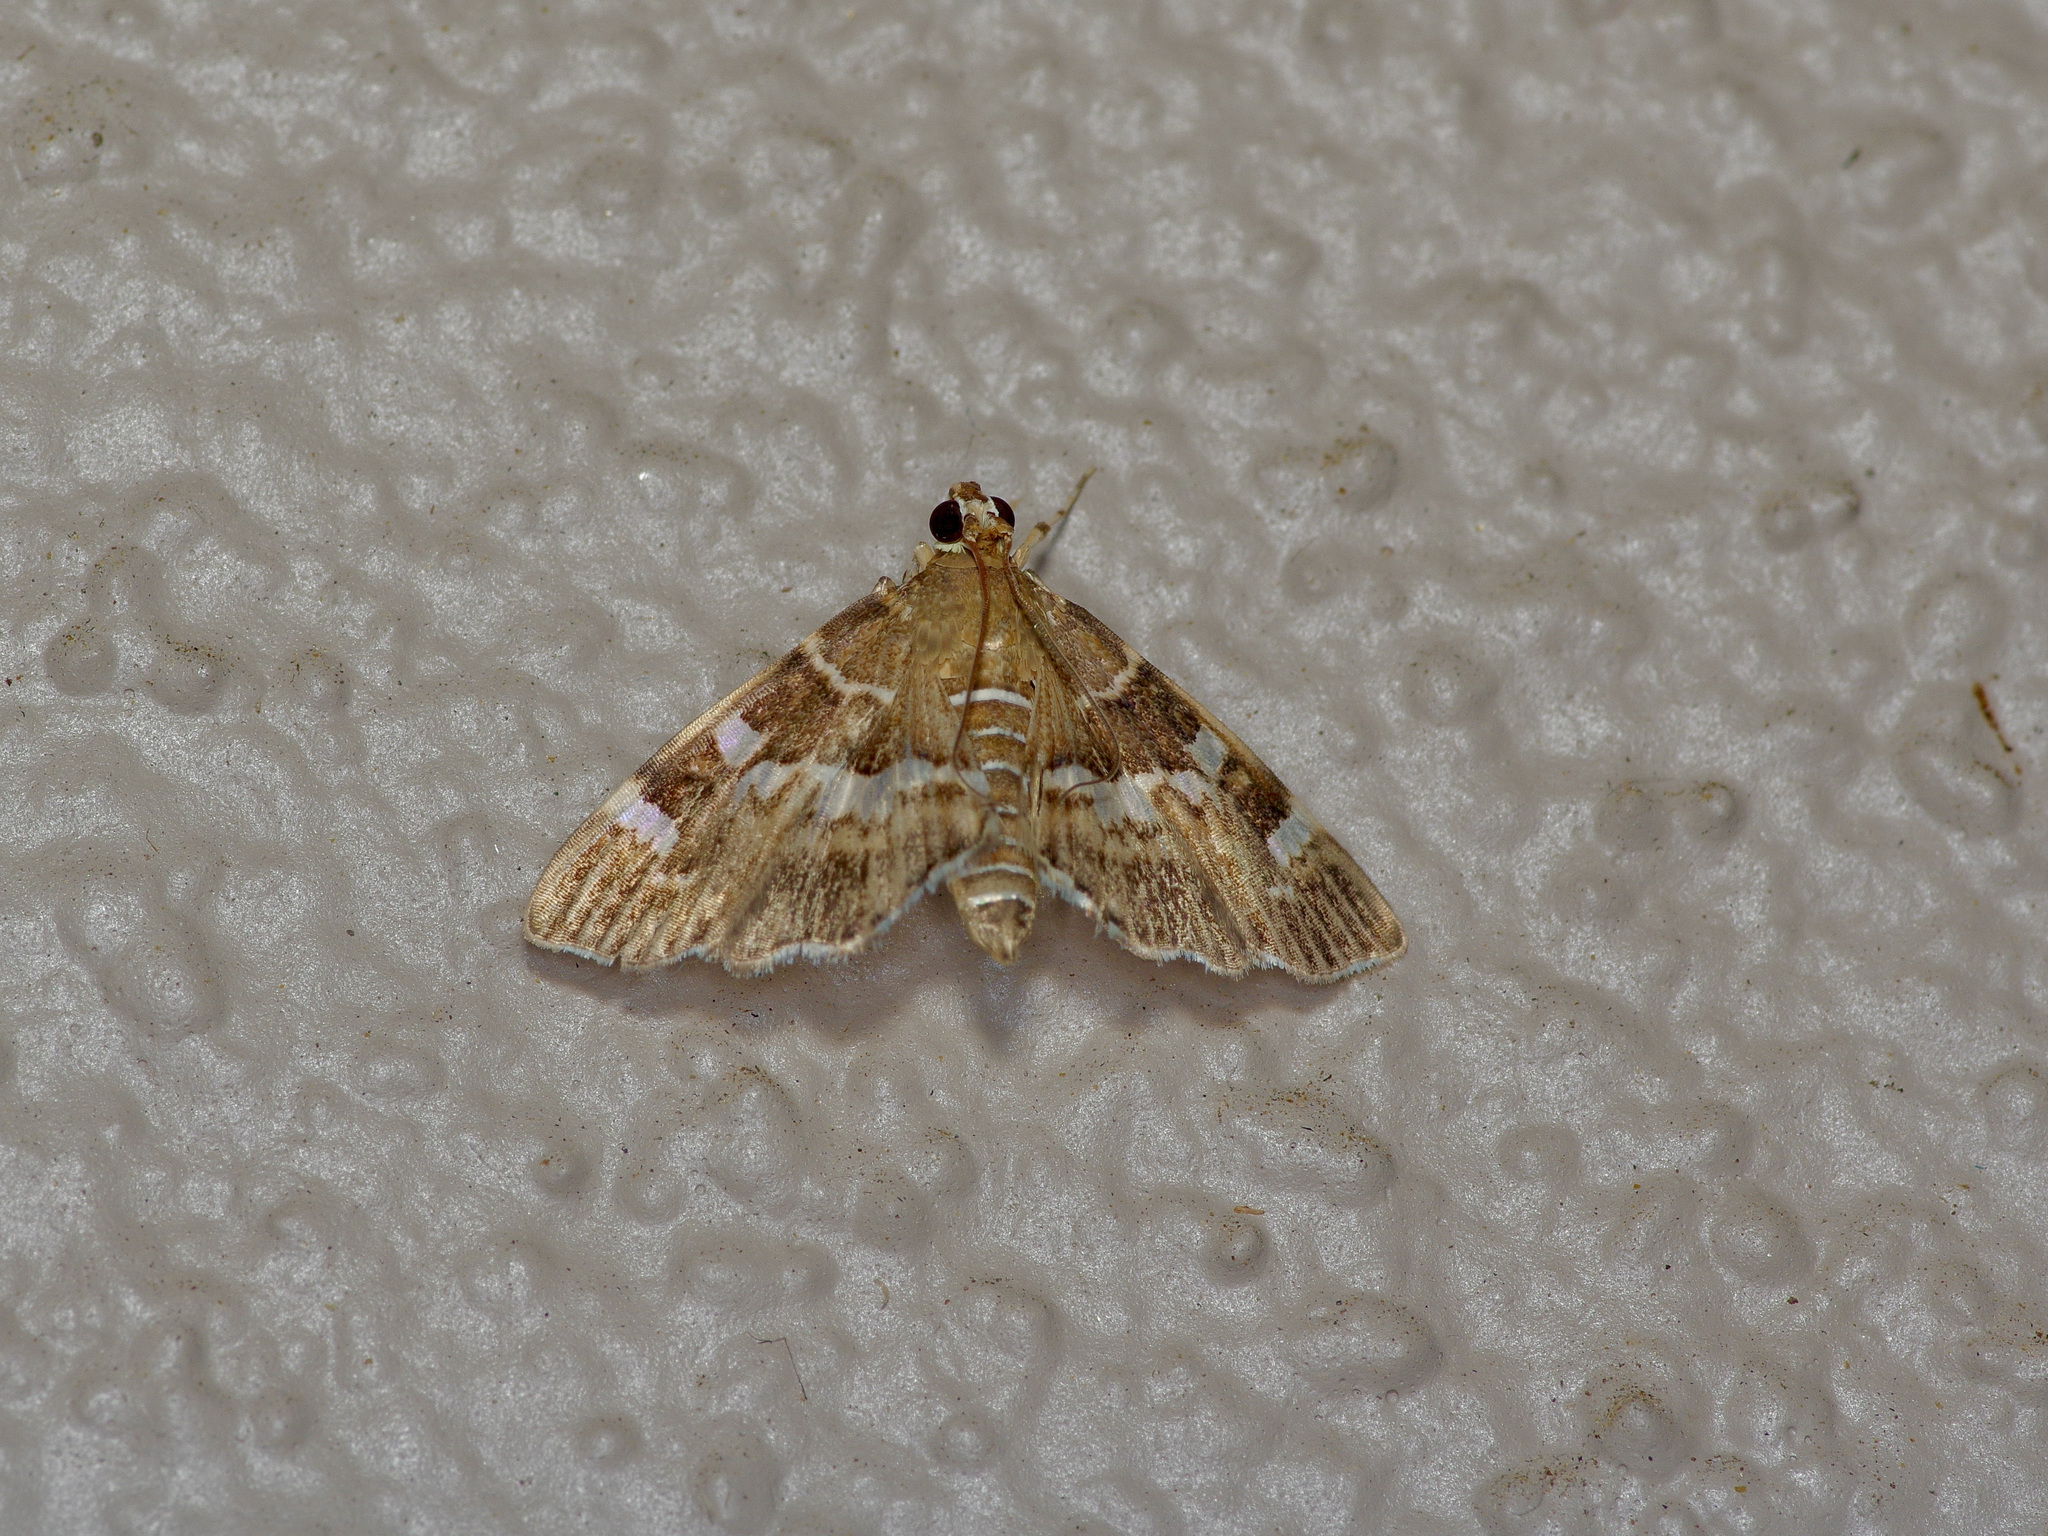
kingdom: Animalia
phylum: Arthropoda
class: Insecta
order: Lepidoptera
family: Crambidae
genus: Hymenia
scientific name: Hymenia perspectalis
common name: Spotted beet webworm
